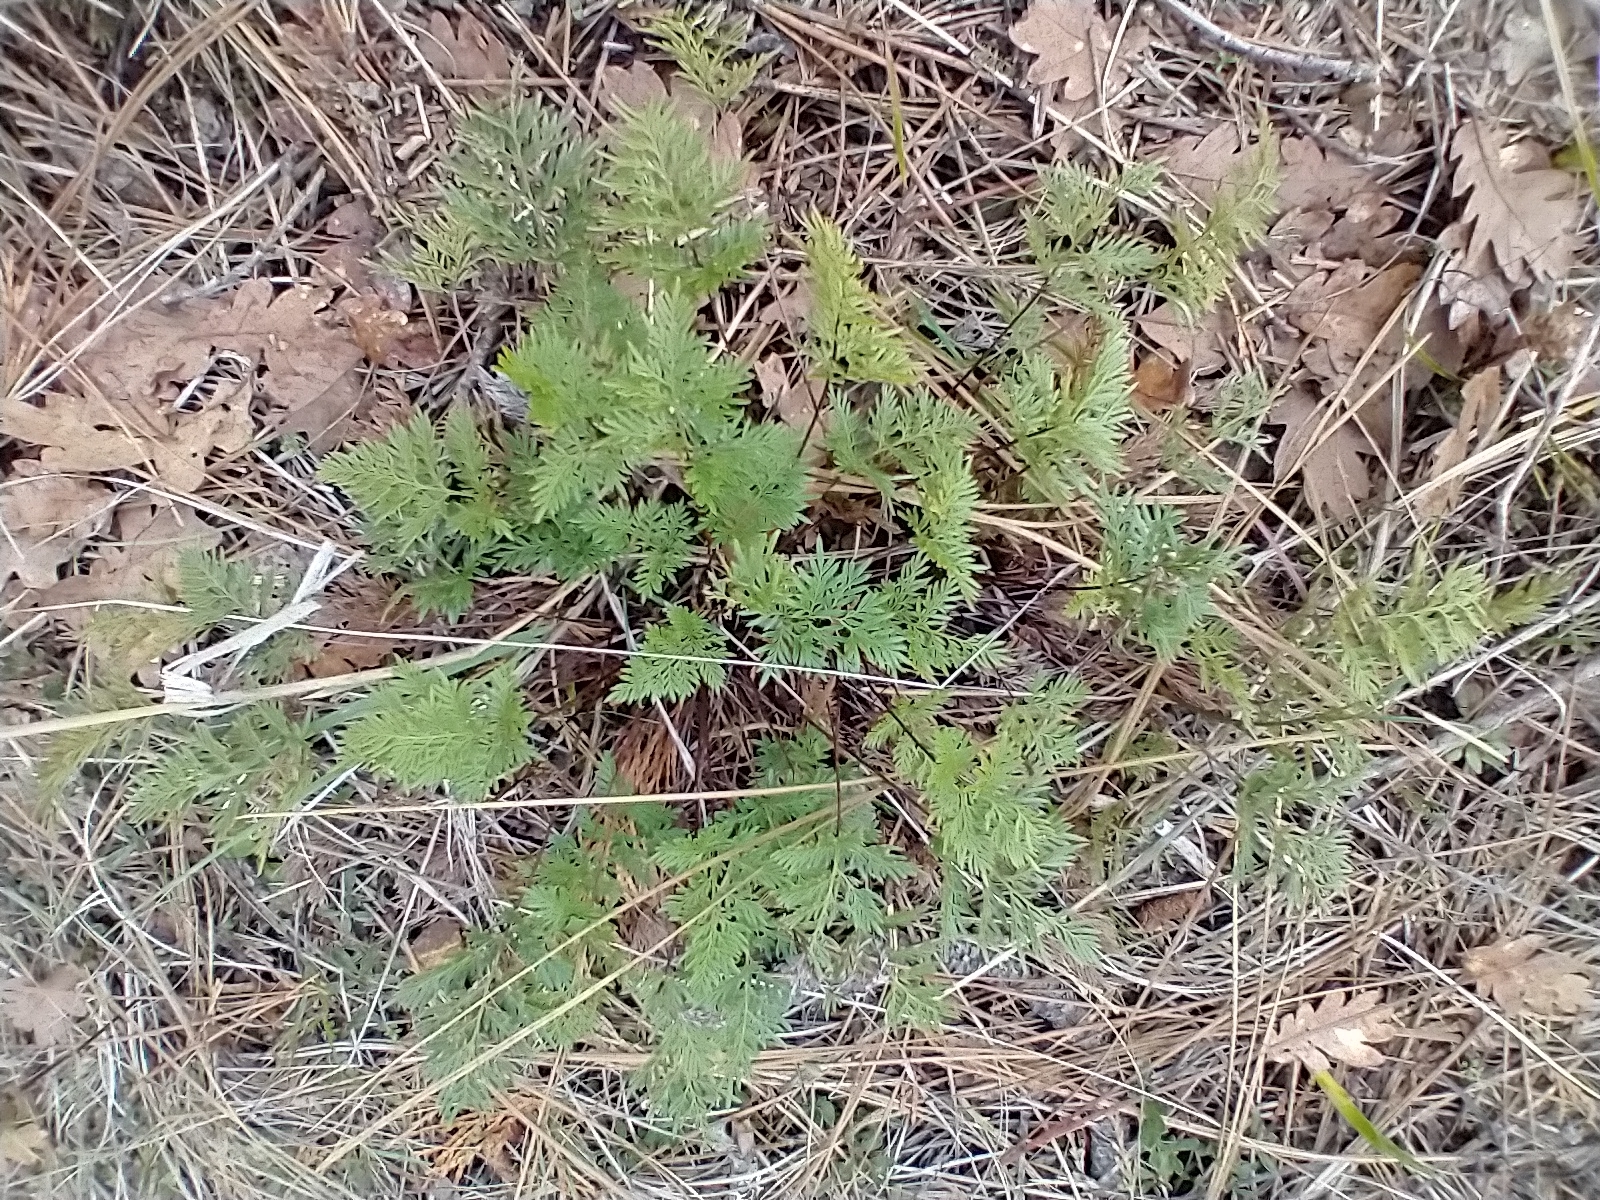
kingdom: Plantae
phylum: Tracheophyta
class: Polypodiopsida
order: Polypodiales
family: Pteridaceae
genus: Aspidotis
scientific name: Aspidotis densa
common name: Indian's dream
